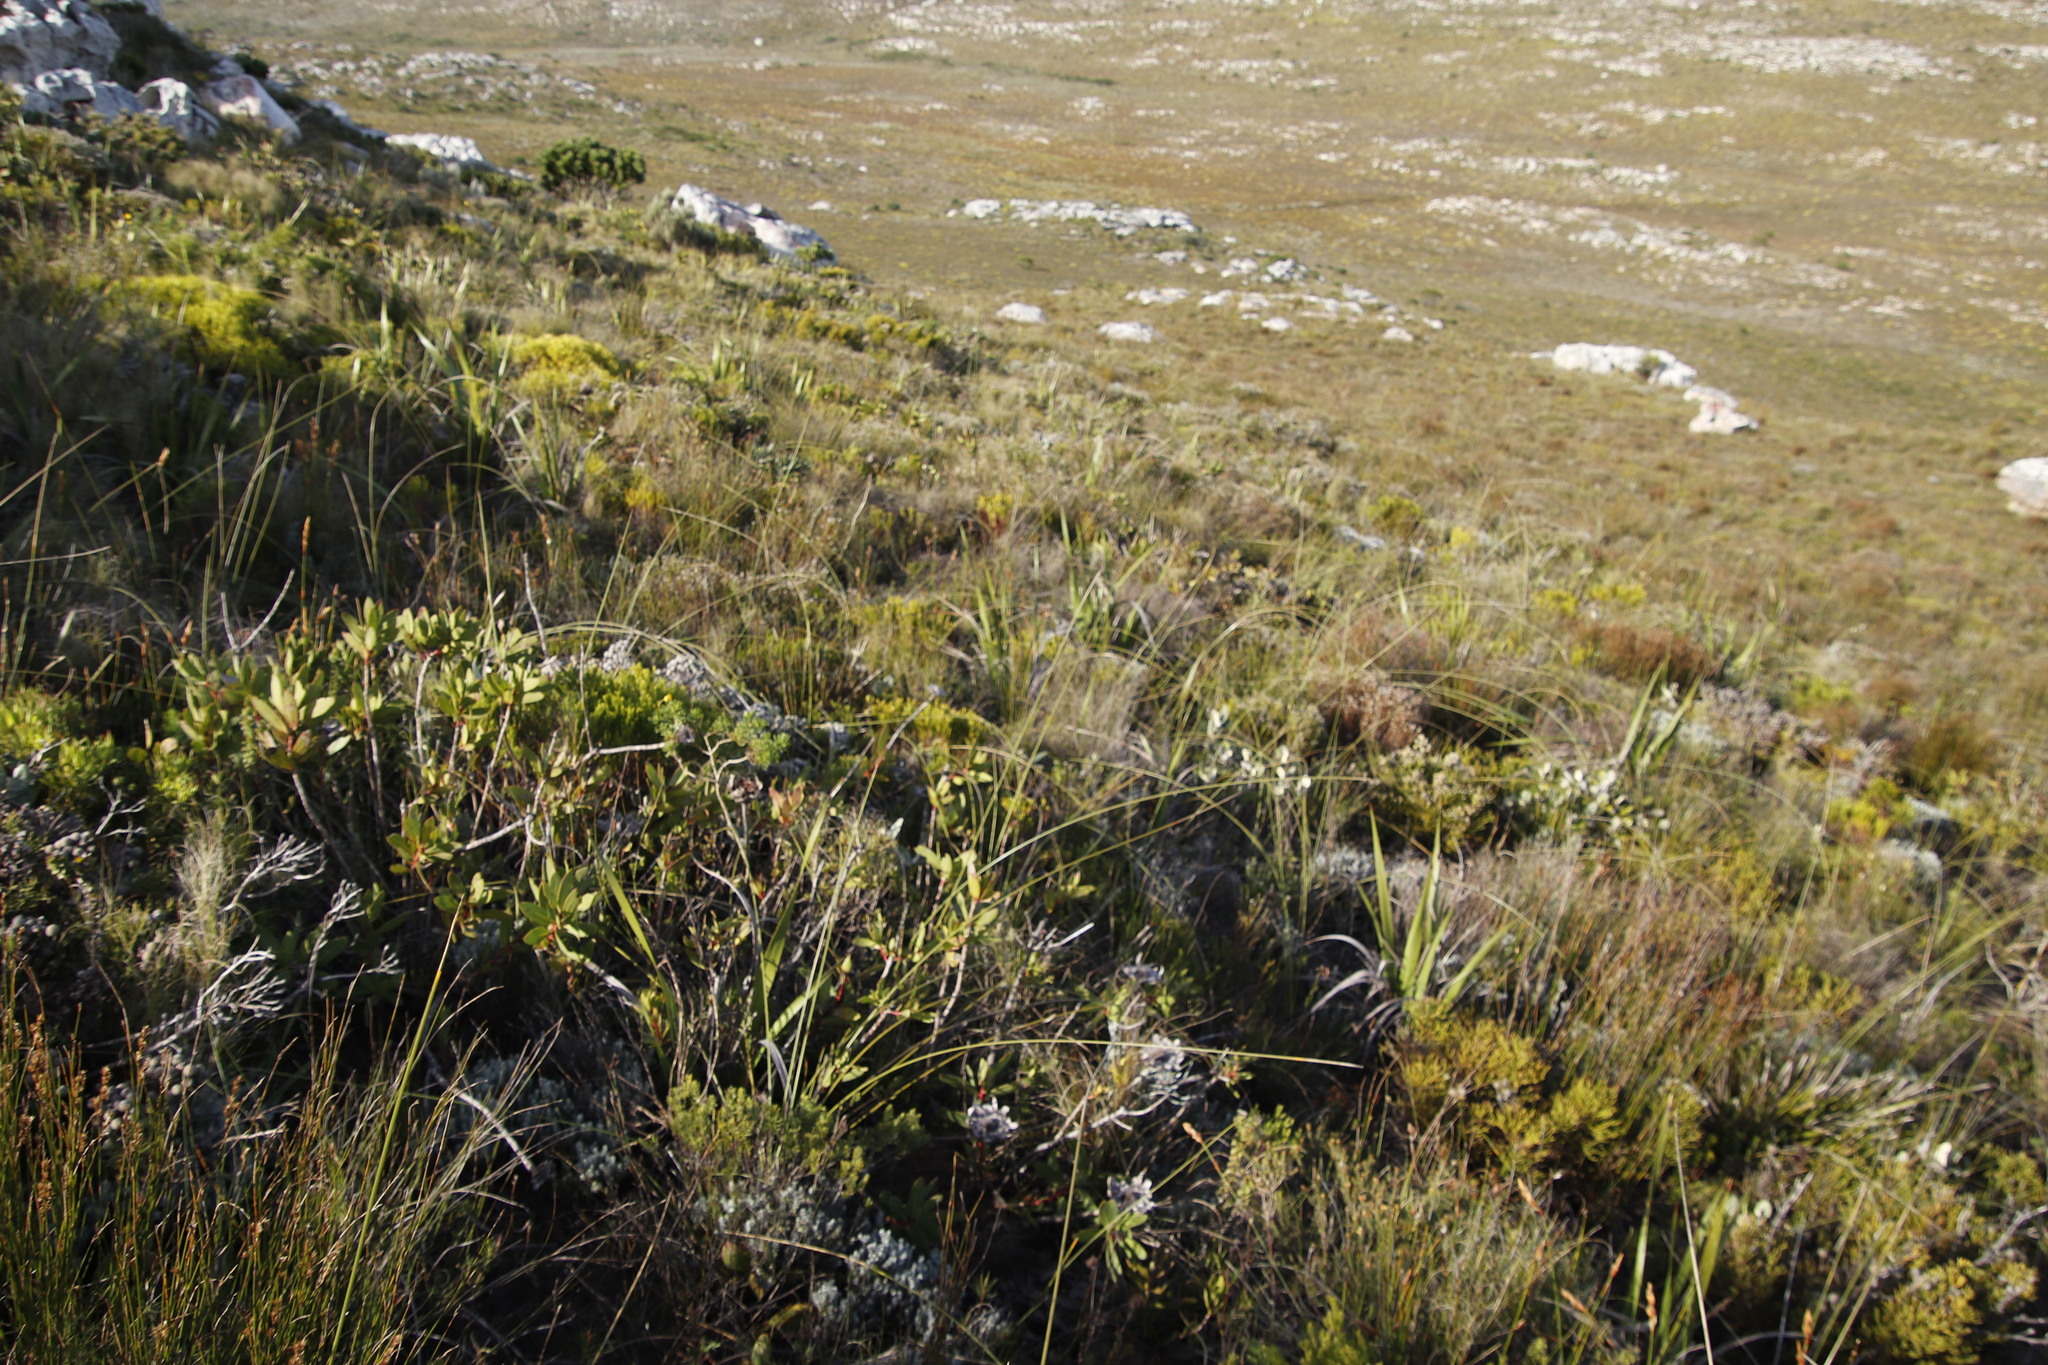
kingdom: Plantae
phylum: Tracheophyta
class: Liliopsida
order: Asparagales
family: Iridaceae
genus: Bobartia
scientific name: Bobartia indica
